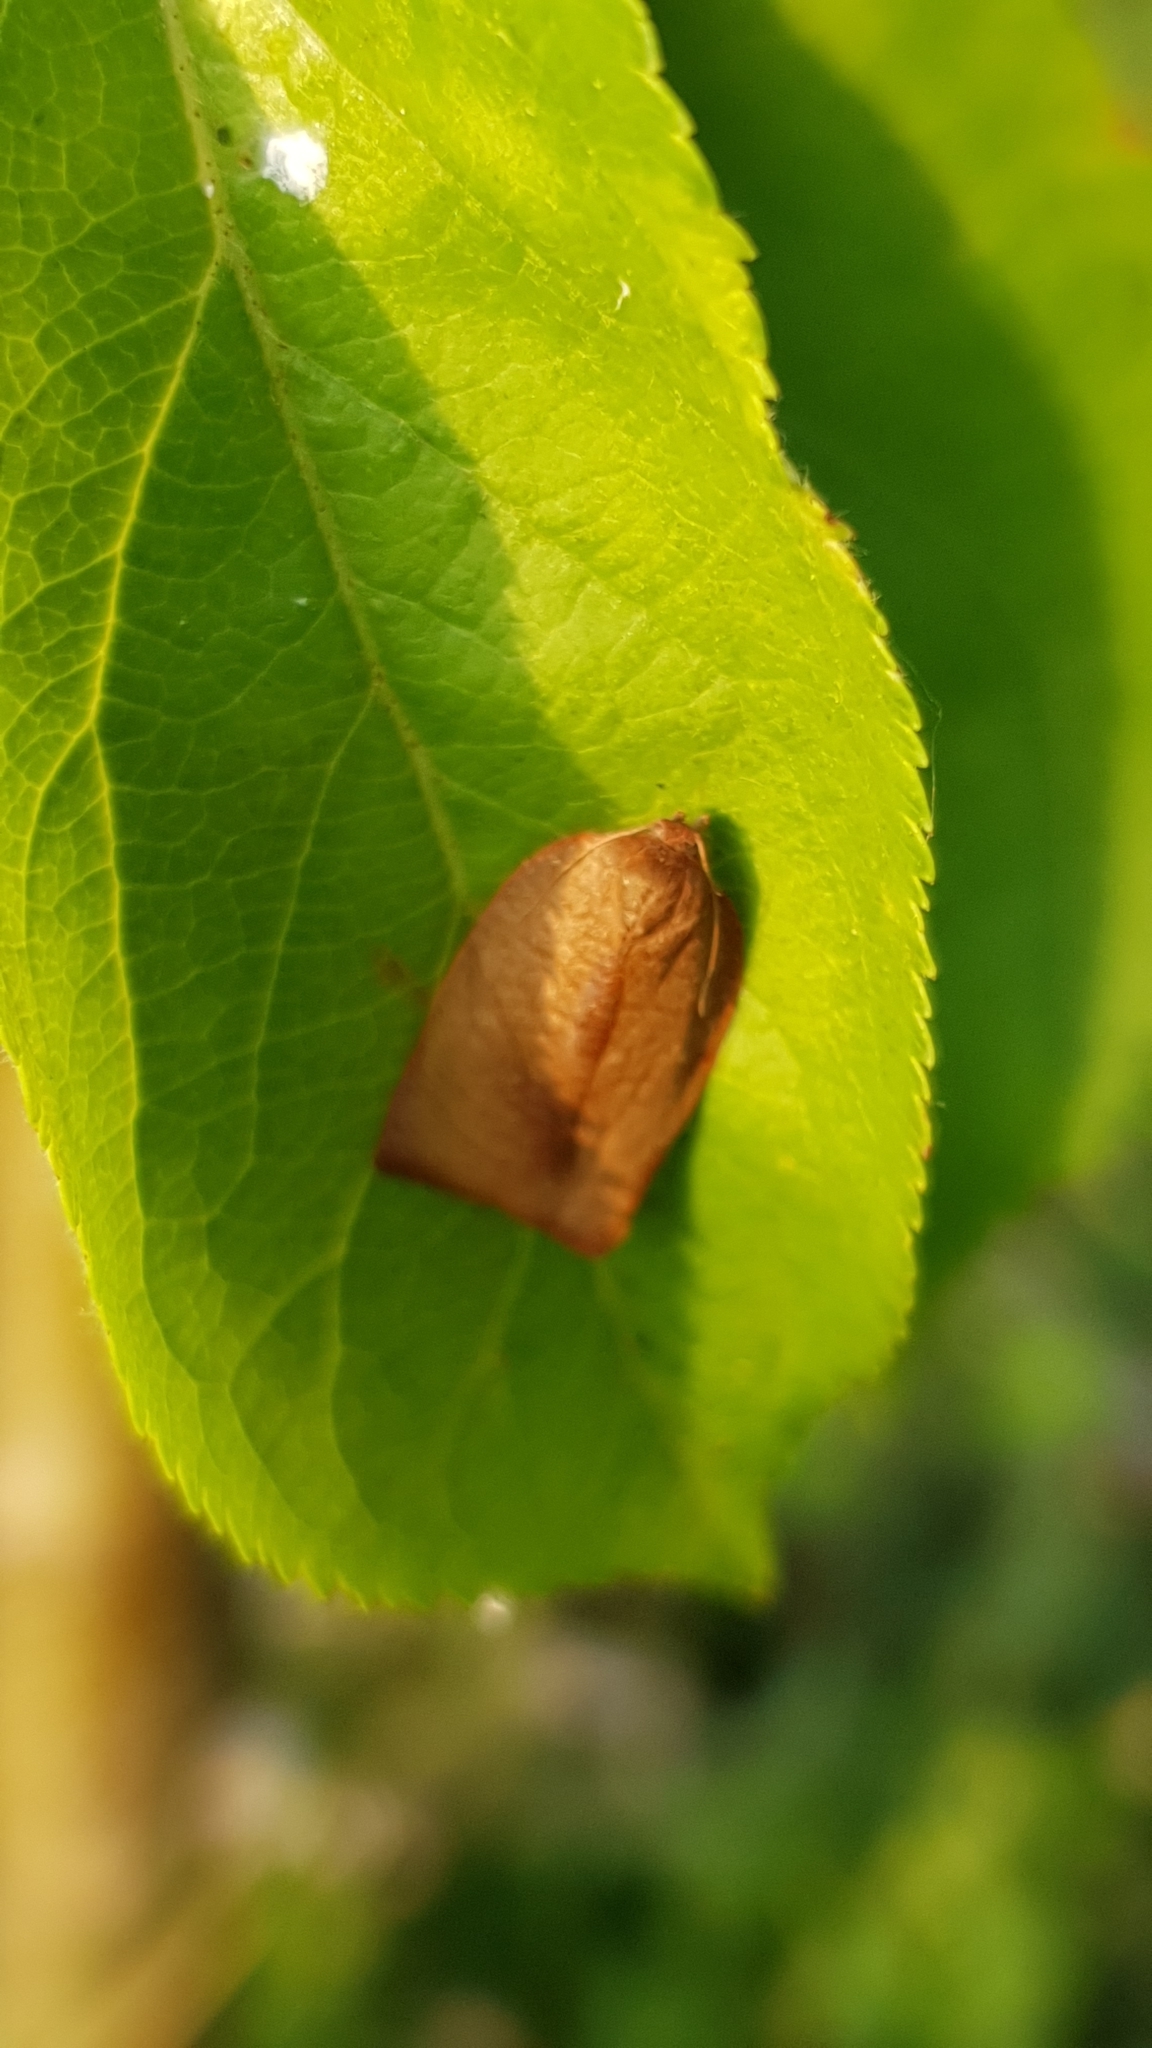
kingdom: Animalia
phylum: Arthropoda
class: Insecta
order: Lepidoptera
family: Tortricidae
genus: Cacoecimorpha
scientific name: Cacoecimorpha pronubana
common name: Carnation tortrix
